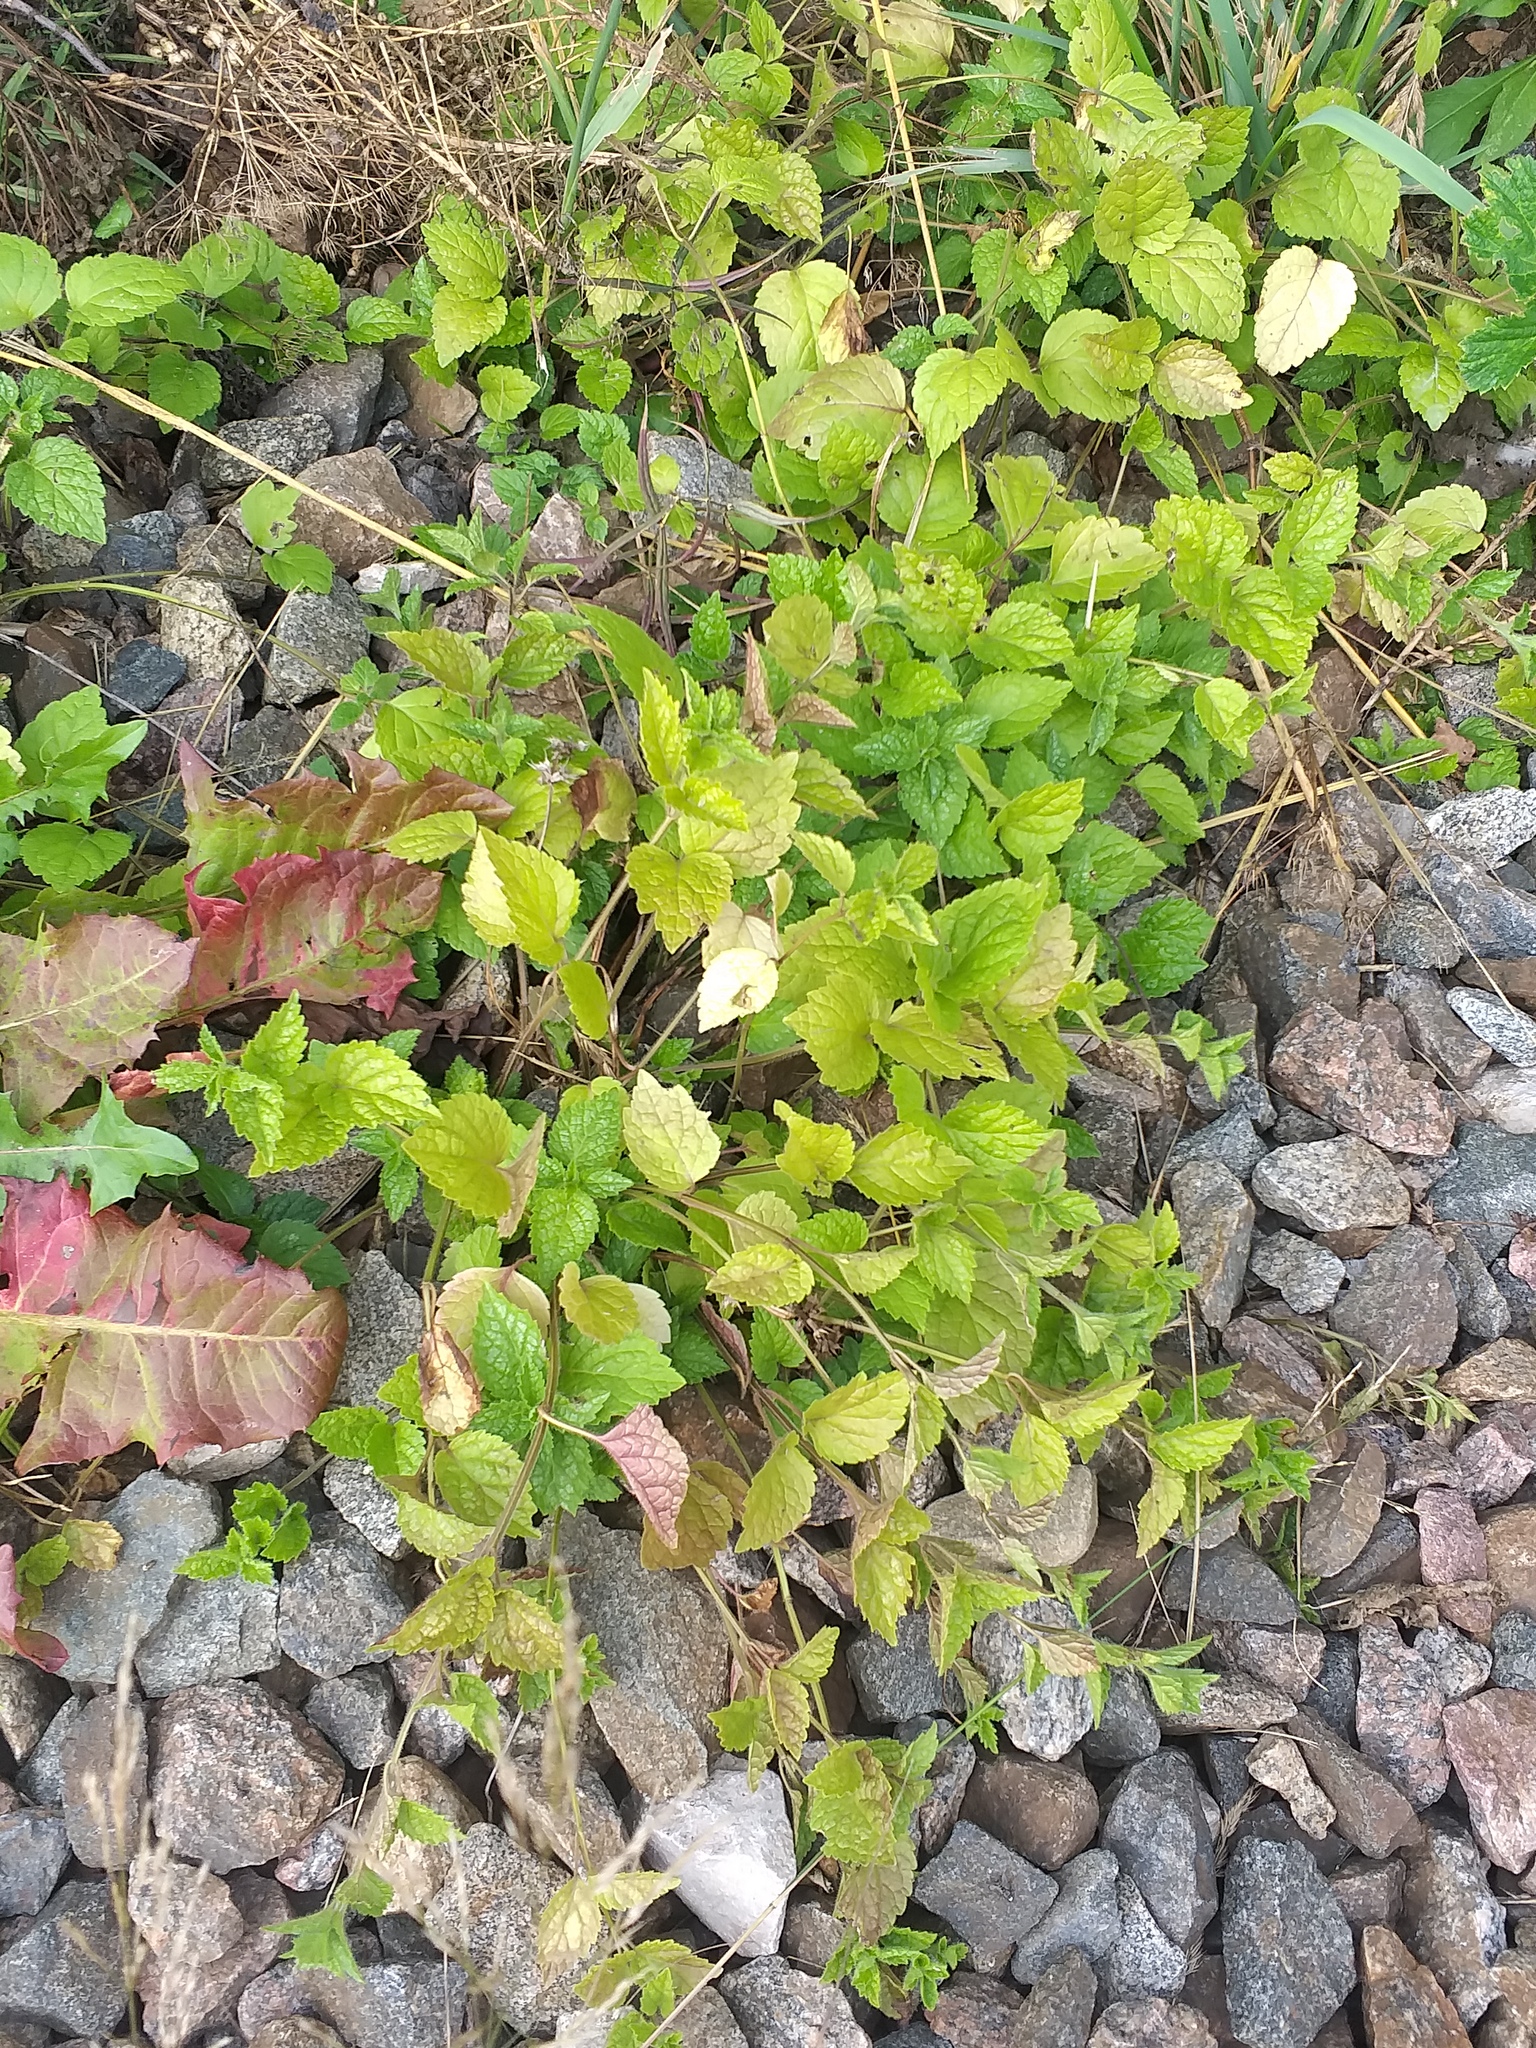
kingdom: Plantae
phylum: Tracheophyta
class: Magnoliopsida
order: Lamiales
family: Lamiaceae
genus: Lamium
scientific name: Lamium galeobdolon
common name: Yellow archangel
